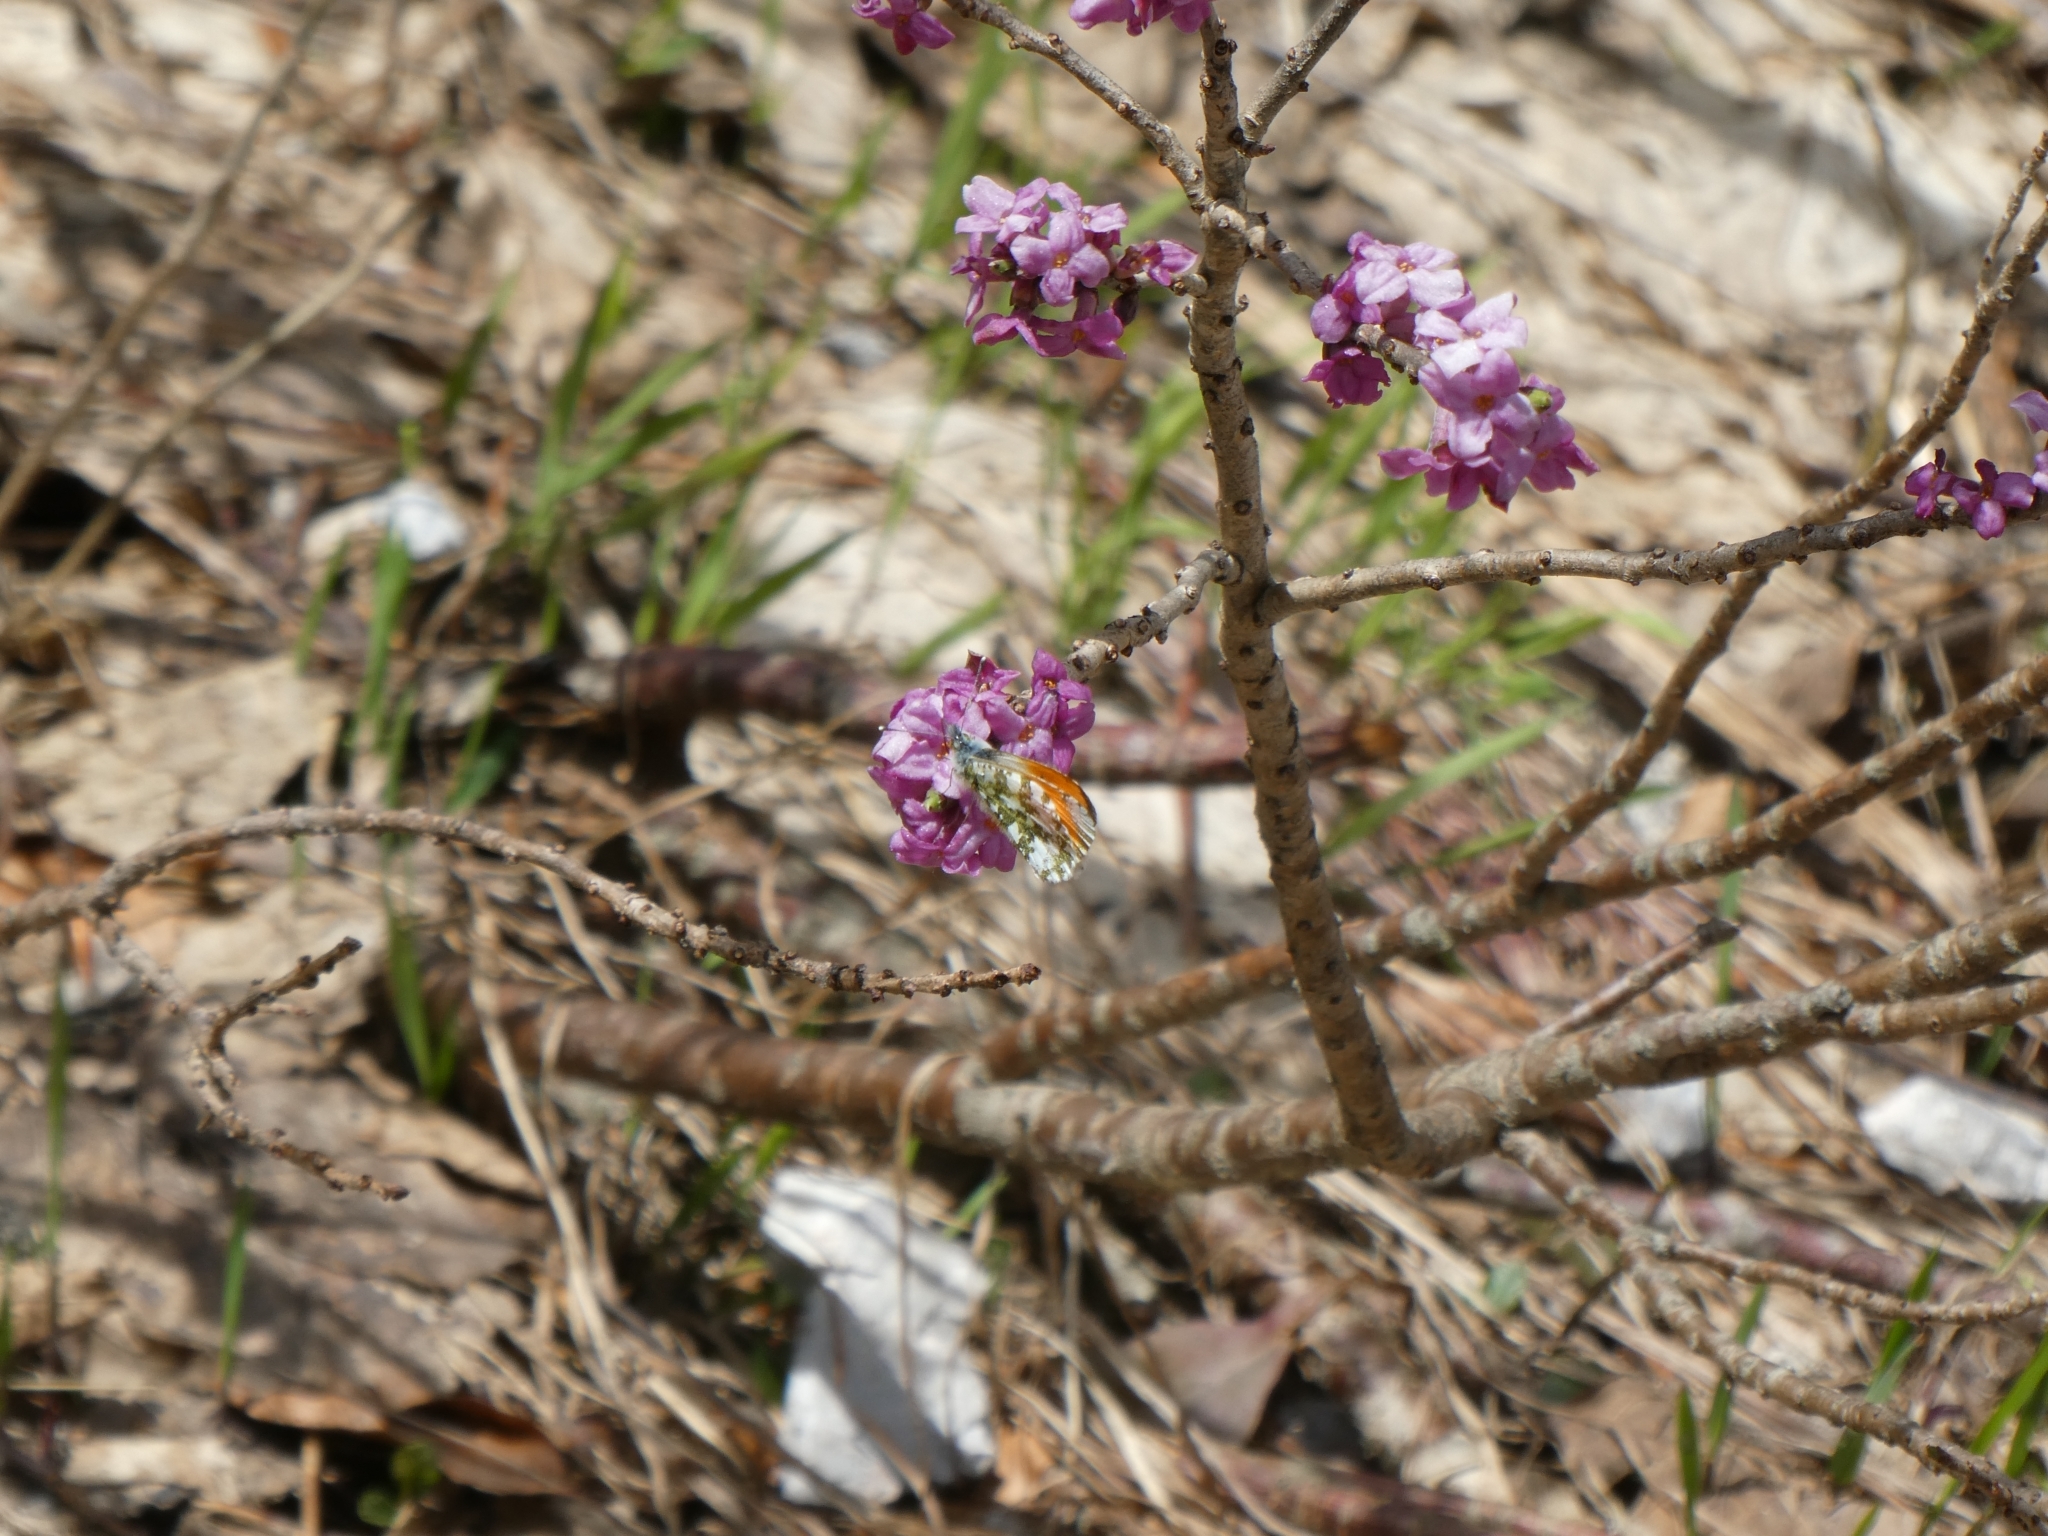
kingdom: Animalia
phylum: Arthropoda
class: Insecta
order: Lepidoptera
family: Pieridae
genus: Anthocharis
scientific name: Anthocharis cardamines
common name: Orange-tip
